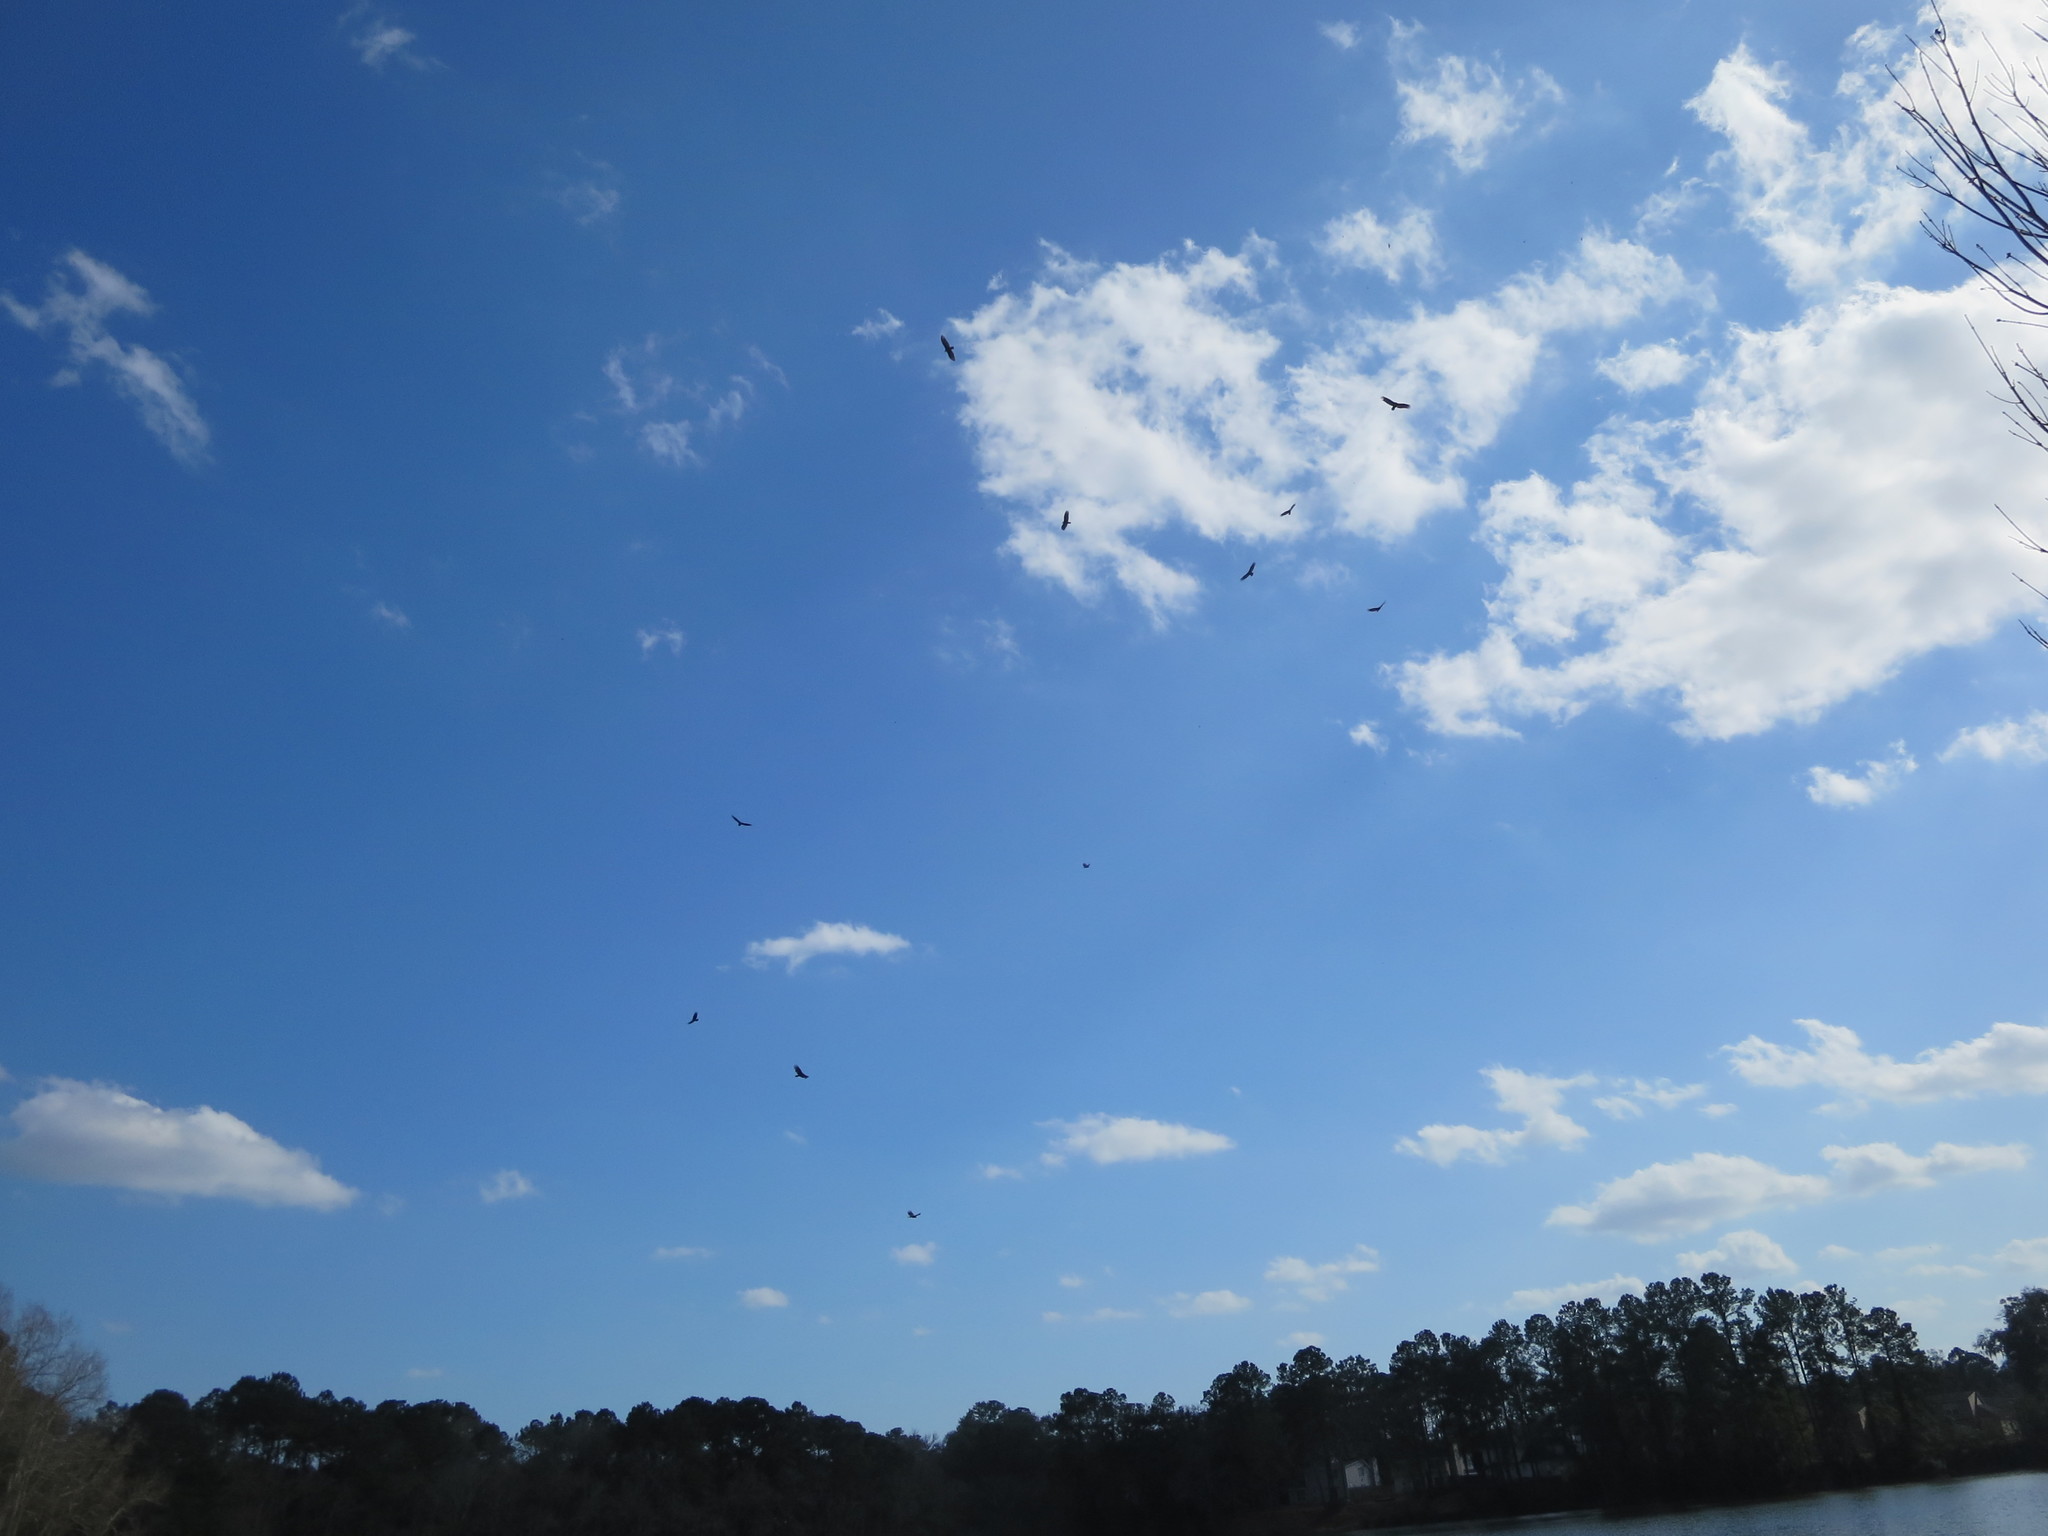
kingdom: Animalia
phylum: Chordata
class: Aves
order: Accipitriformes
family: Cathartidae
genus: Cathartes
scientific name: Cathartes aura
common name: Turkey vulture
